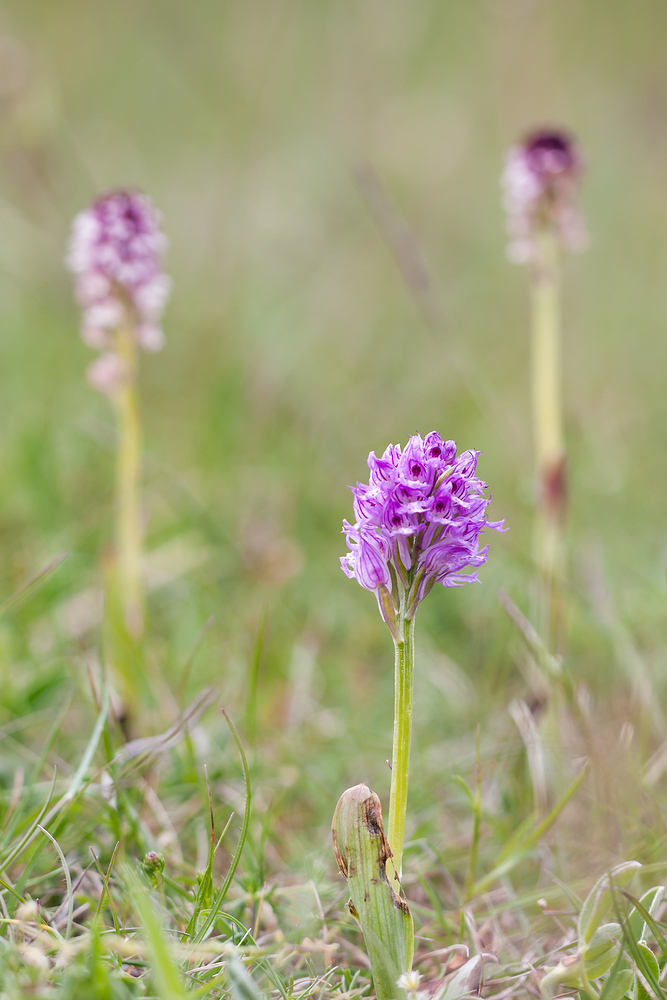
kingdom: Plantae
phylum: Tracheophyta
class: Liliopsida
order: Asparagales
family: Orchidaceae
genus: Neotinea
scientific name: Neotinea tridentata
